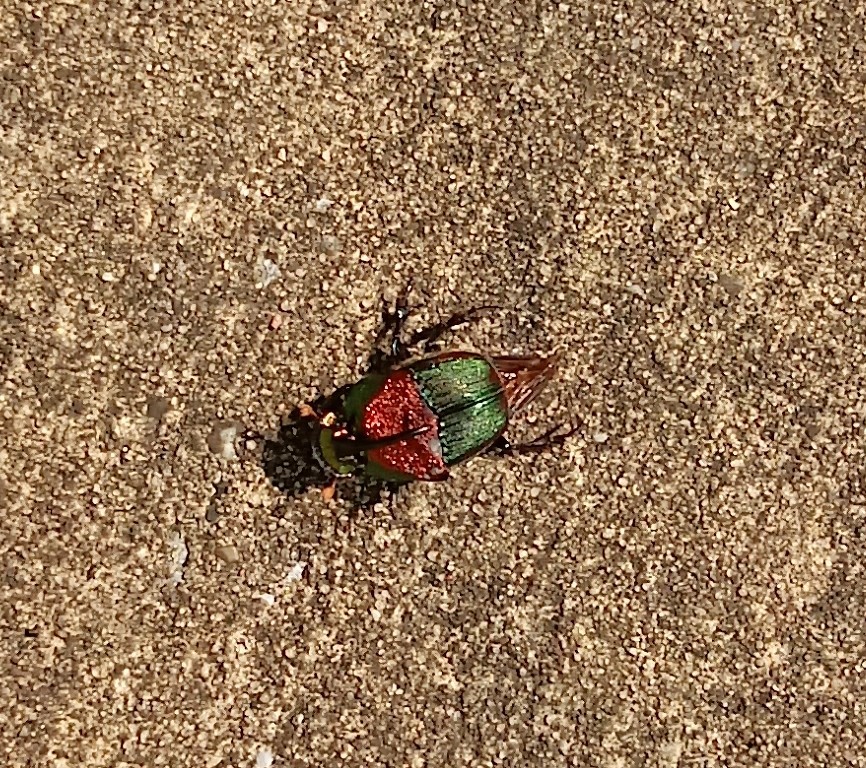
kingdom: Animalia
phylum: Arthropoda
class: Insecta
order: Coleoptera
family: Scarabaeidae
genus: Phanaeus
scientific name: Phanaeus vindex
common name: Rainbow scarab
